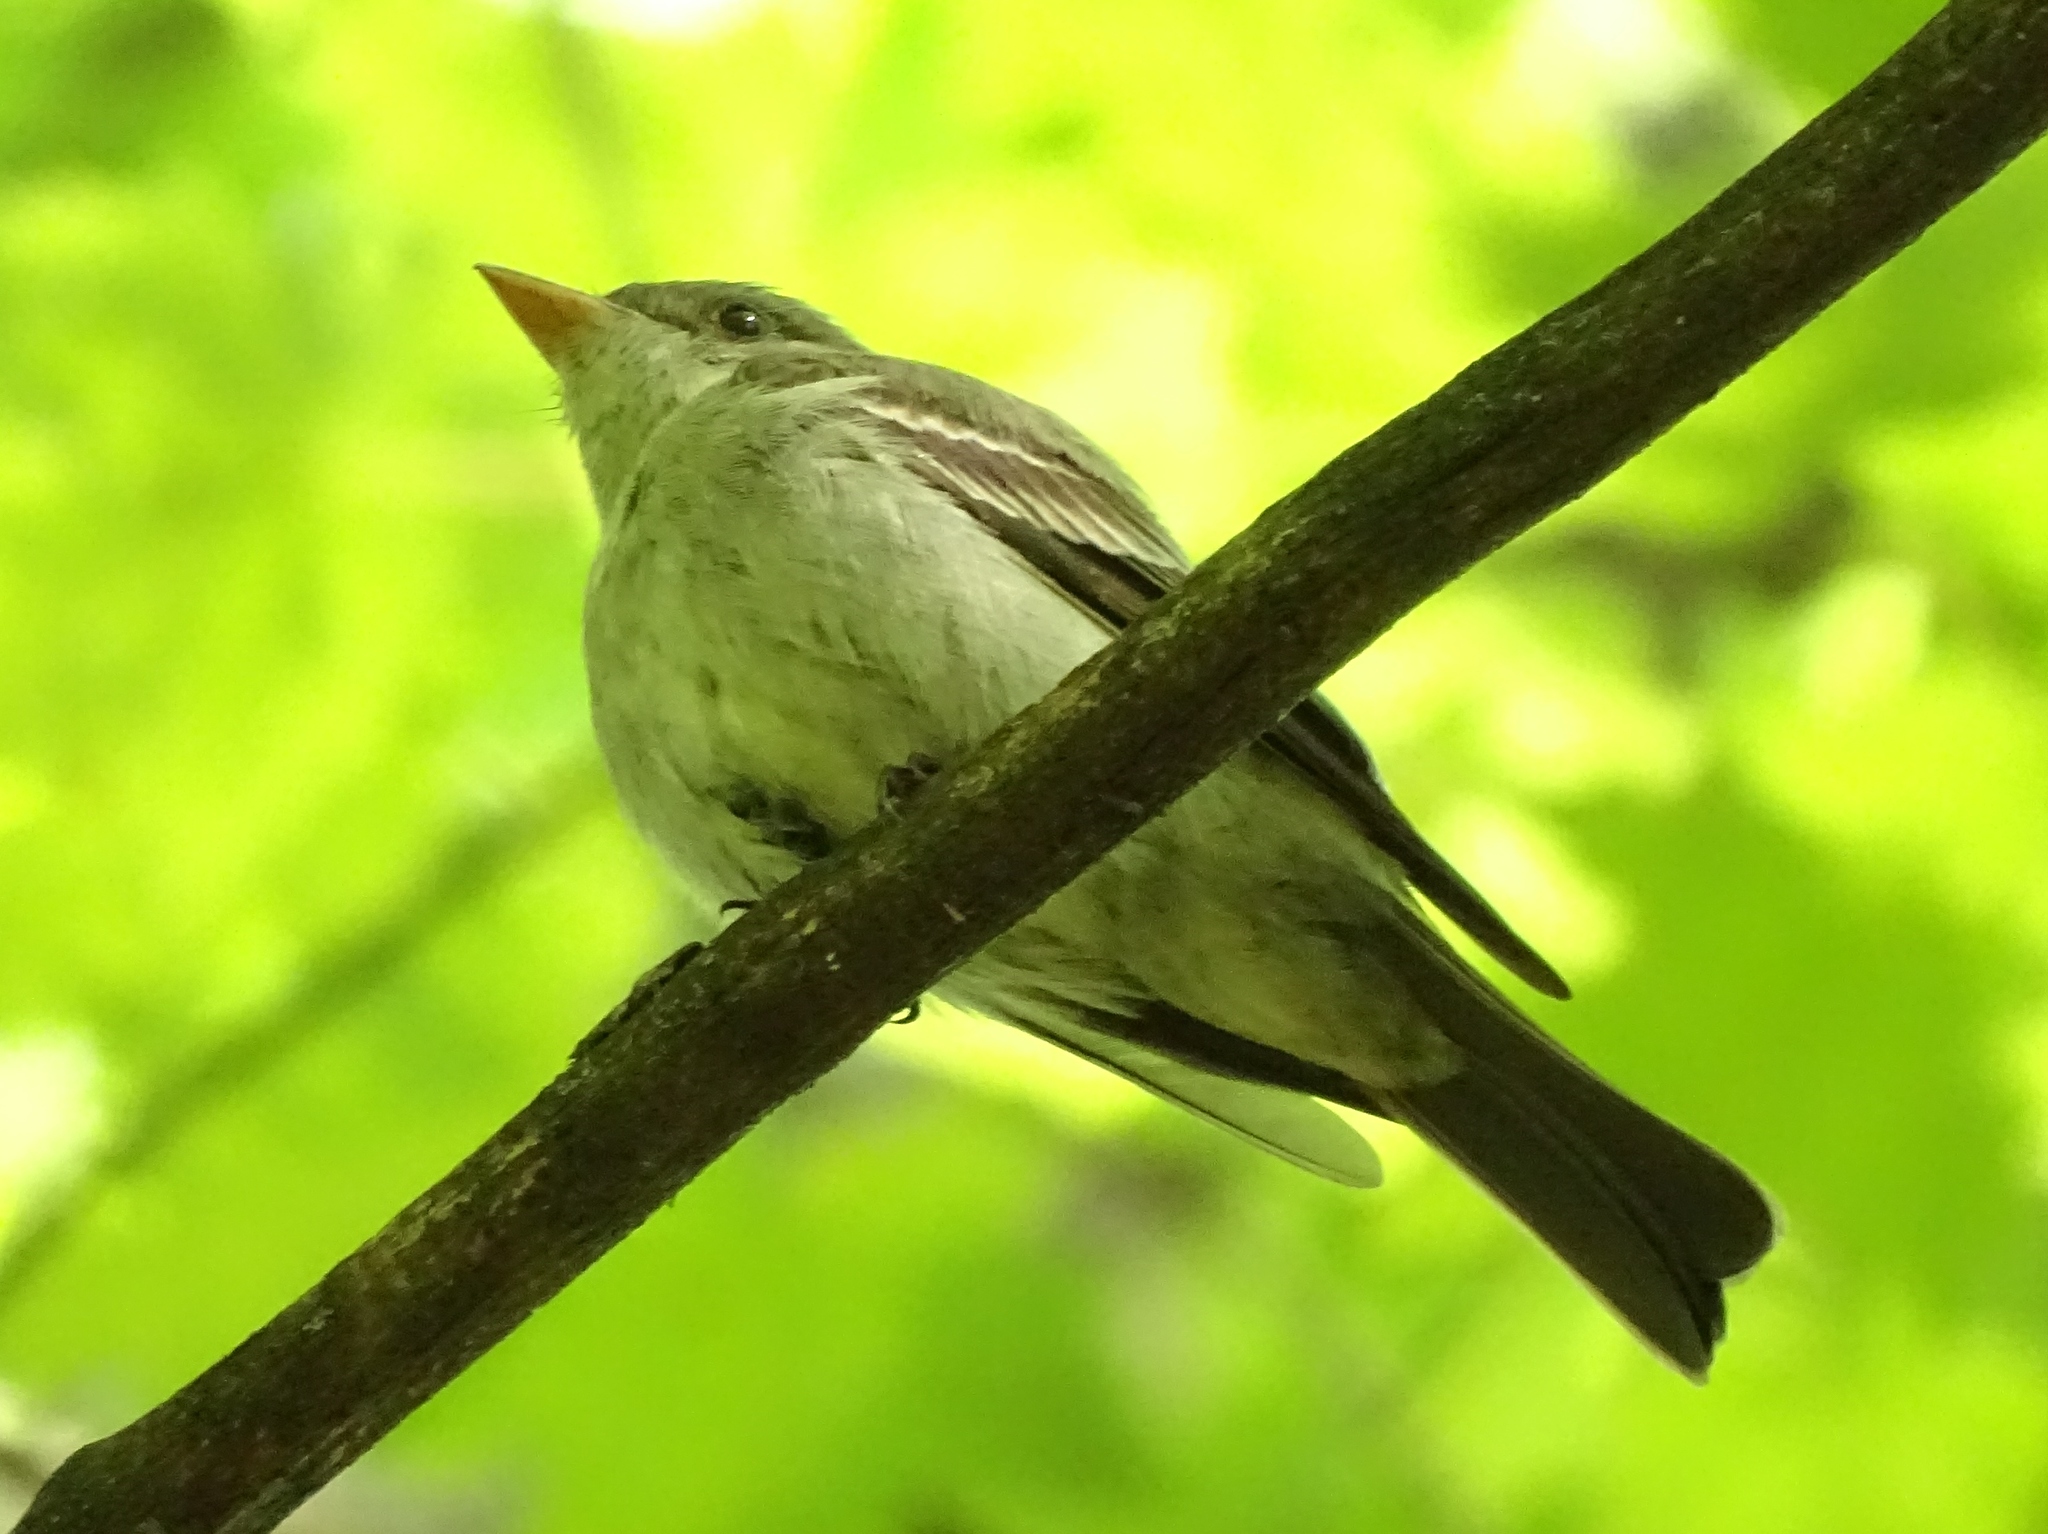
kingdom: Animalia
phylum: Chordata
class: Aves
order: Passeriformes
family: Tyrannidae
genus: Contopus
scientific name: Contopus virens
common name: Eastern wood-pewee
